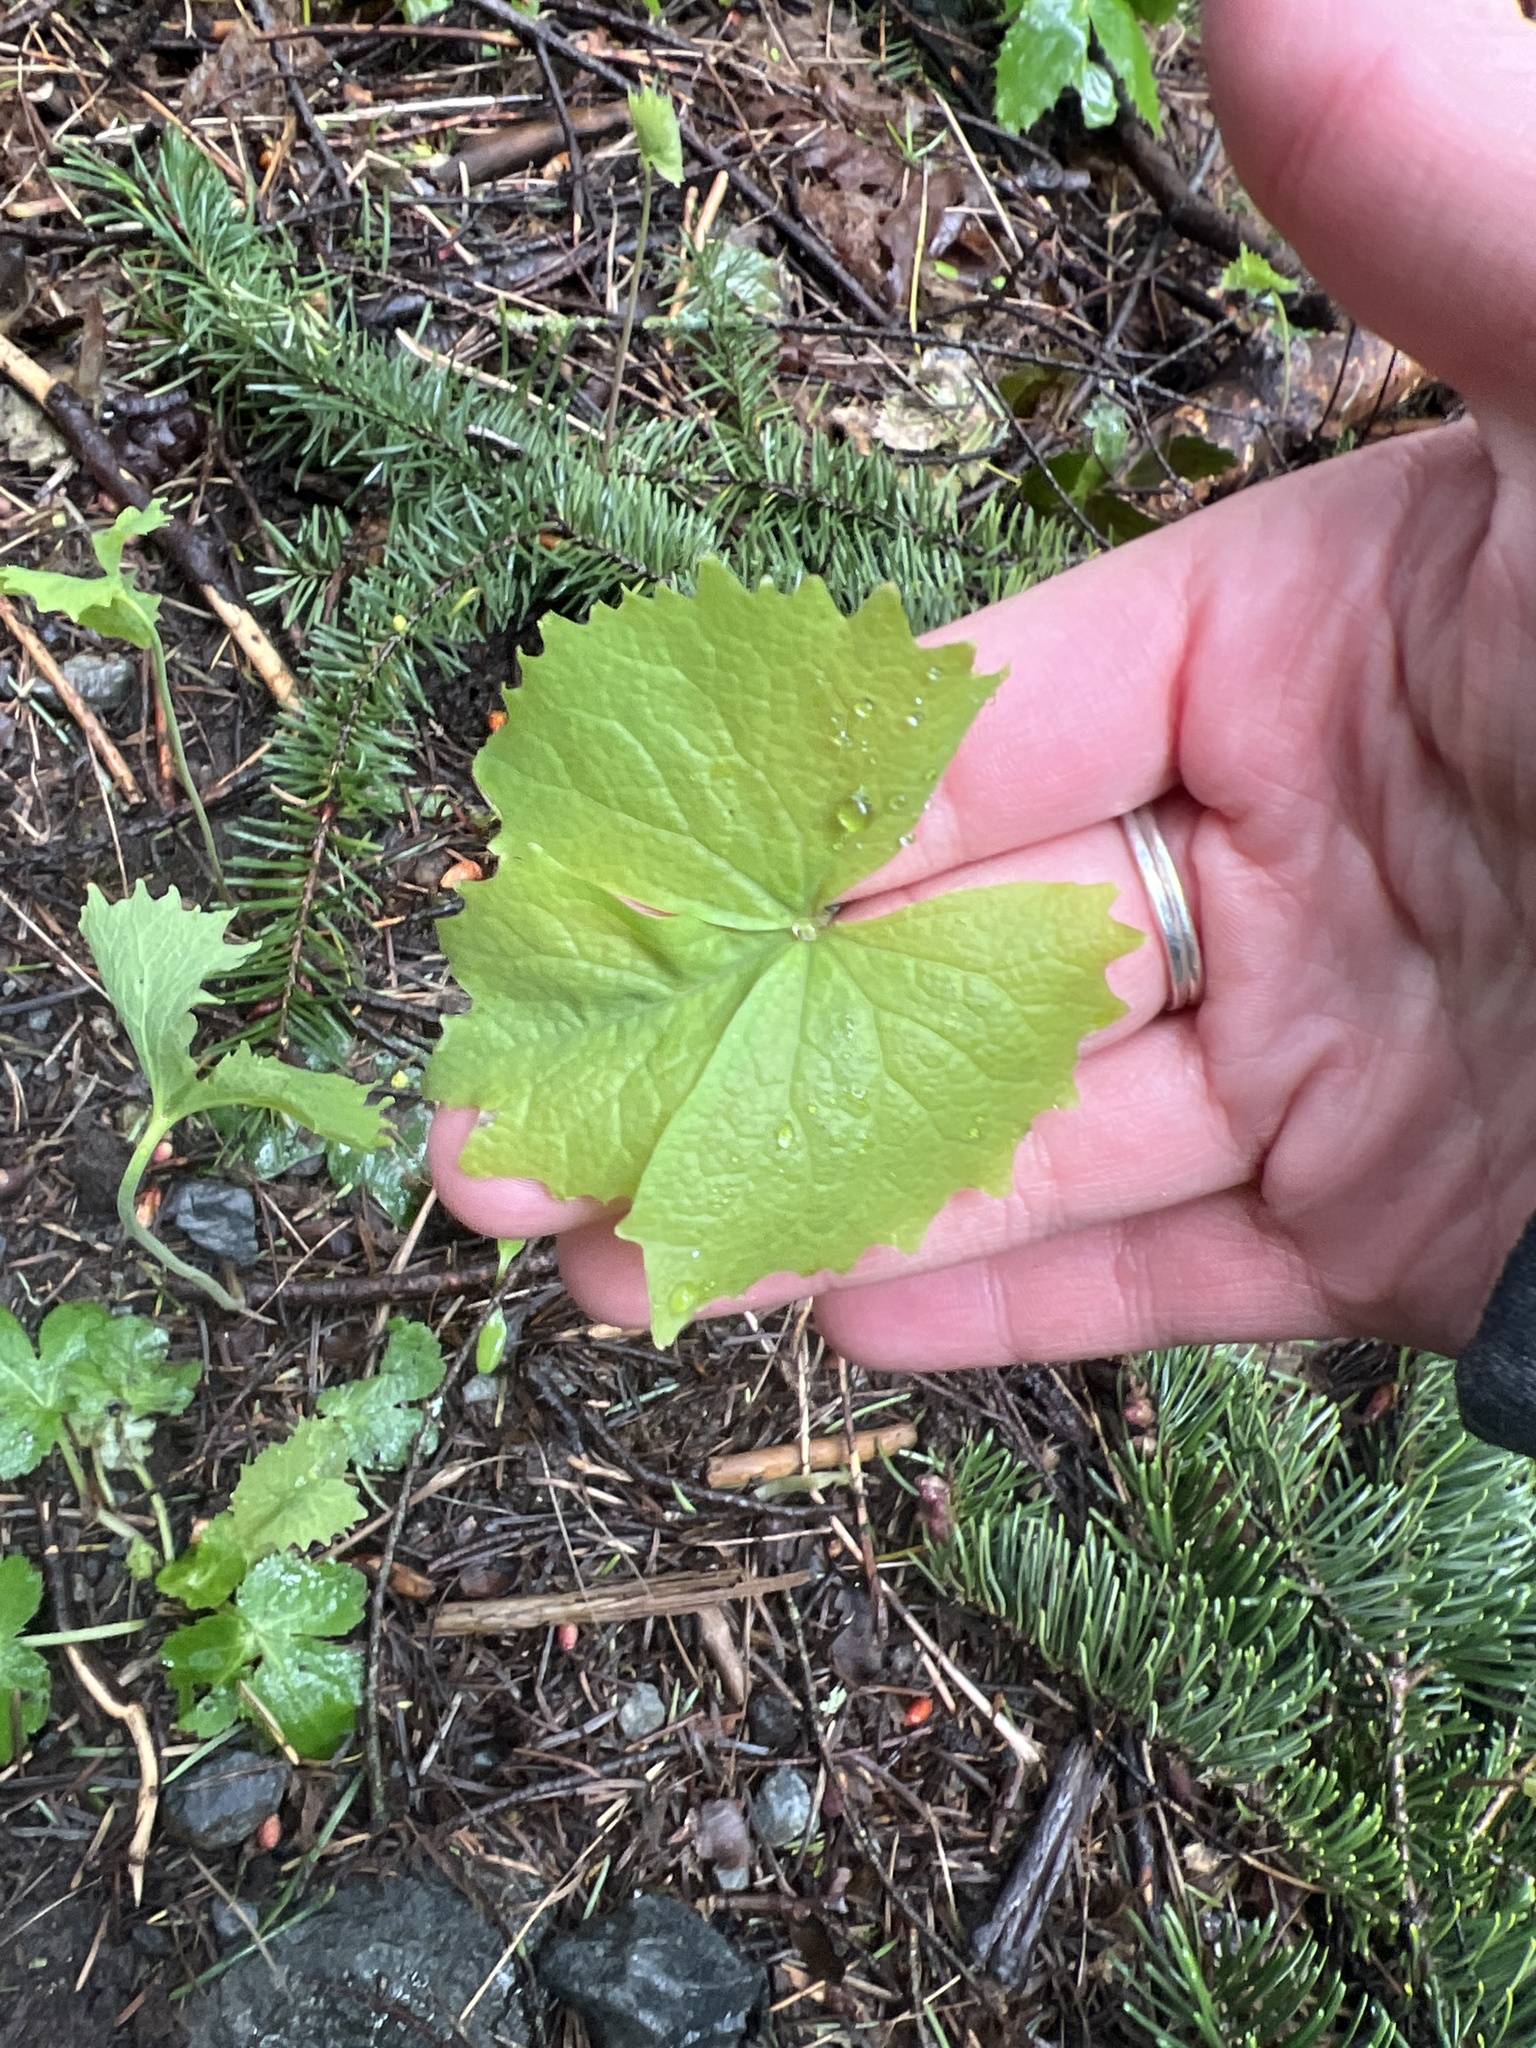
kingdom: Plantae
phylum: Tracheophyta
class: Magnoliopsida
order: Ranunculales
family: Berberidaceae
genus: Achlys
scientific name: Achlys triphylla
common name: Vanilla-leaf
